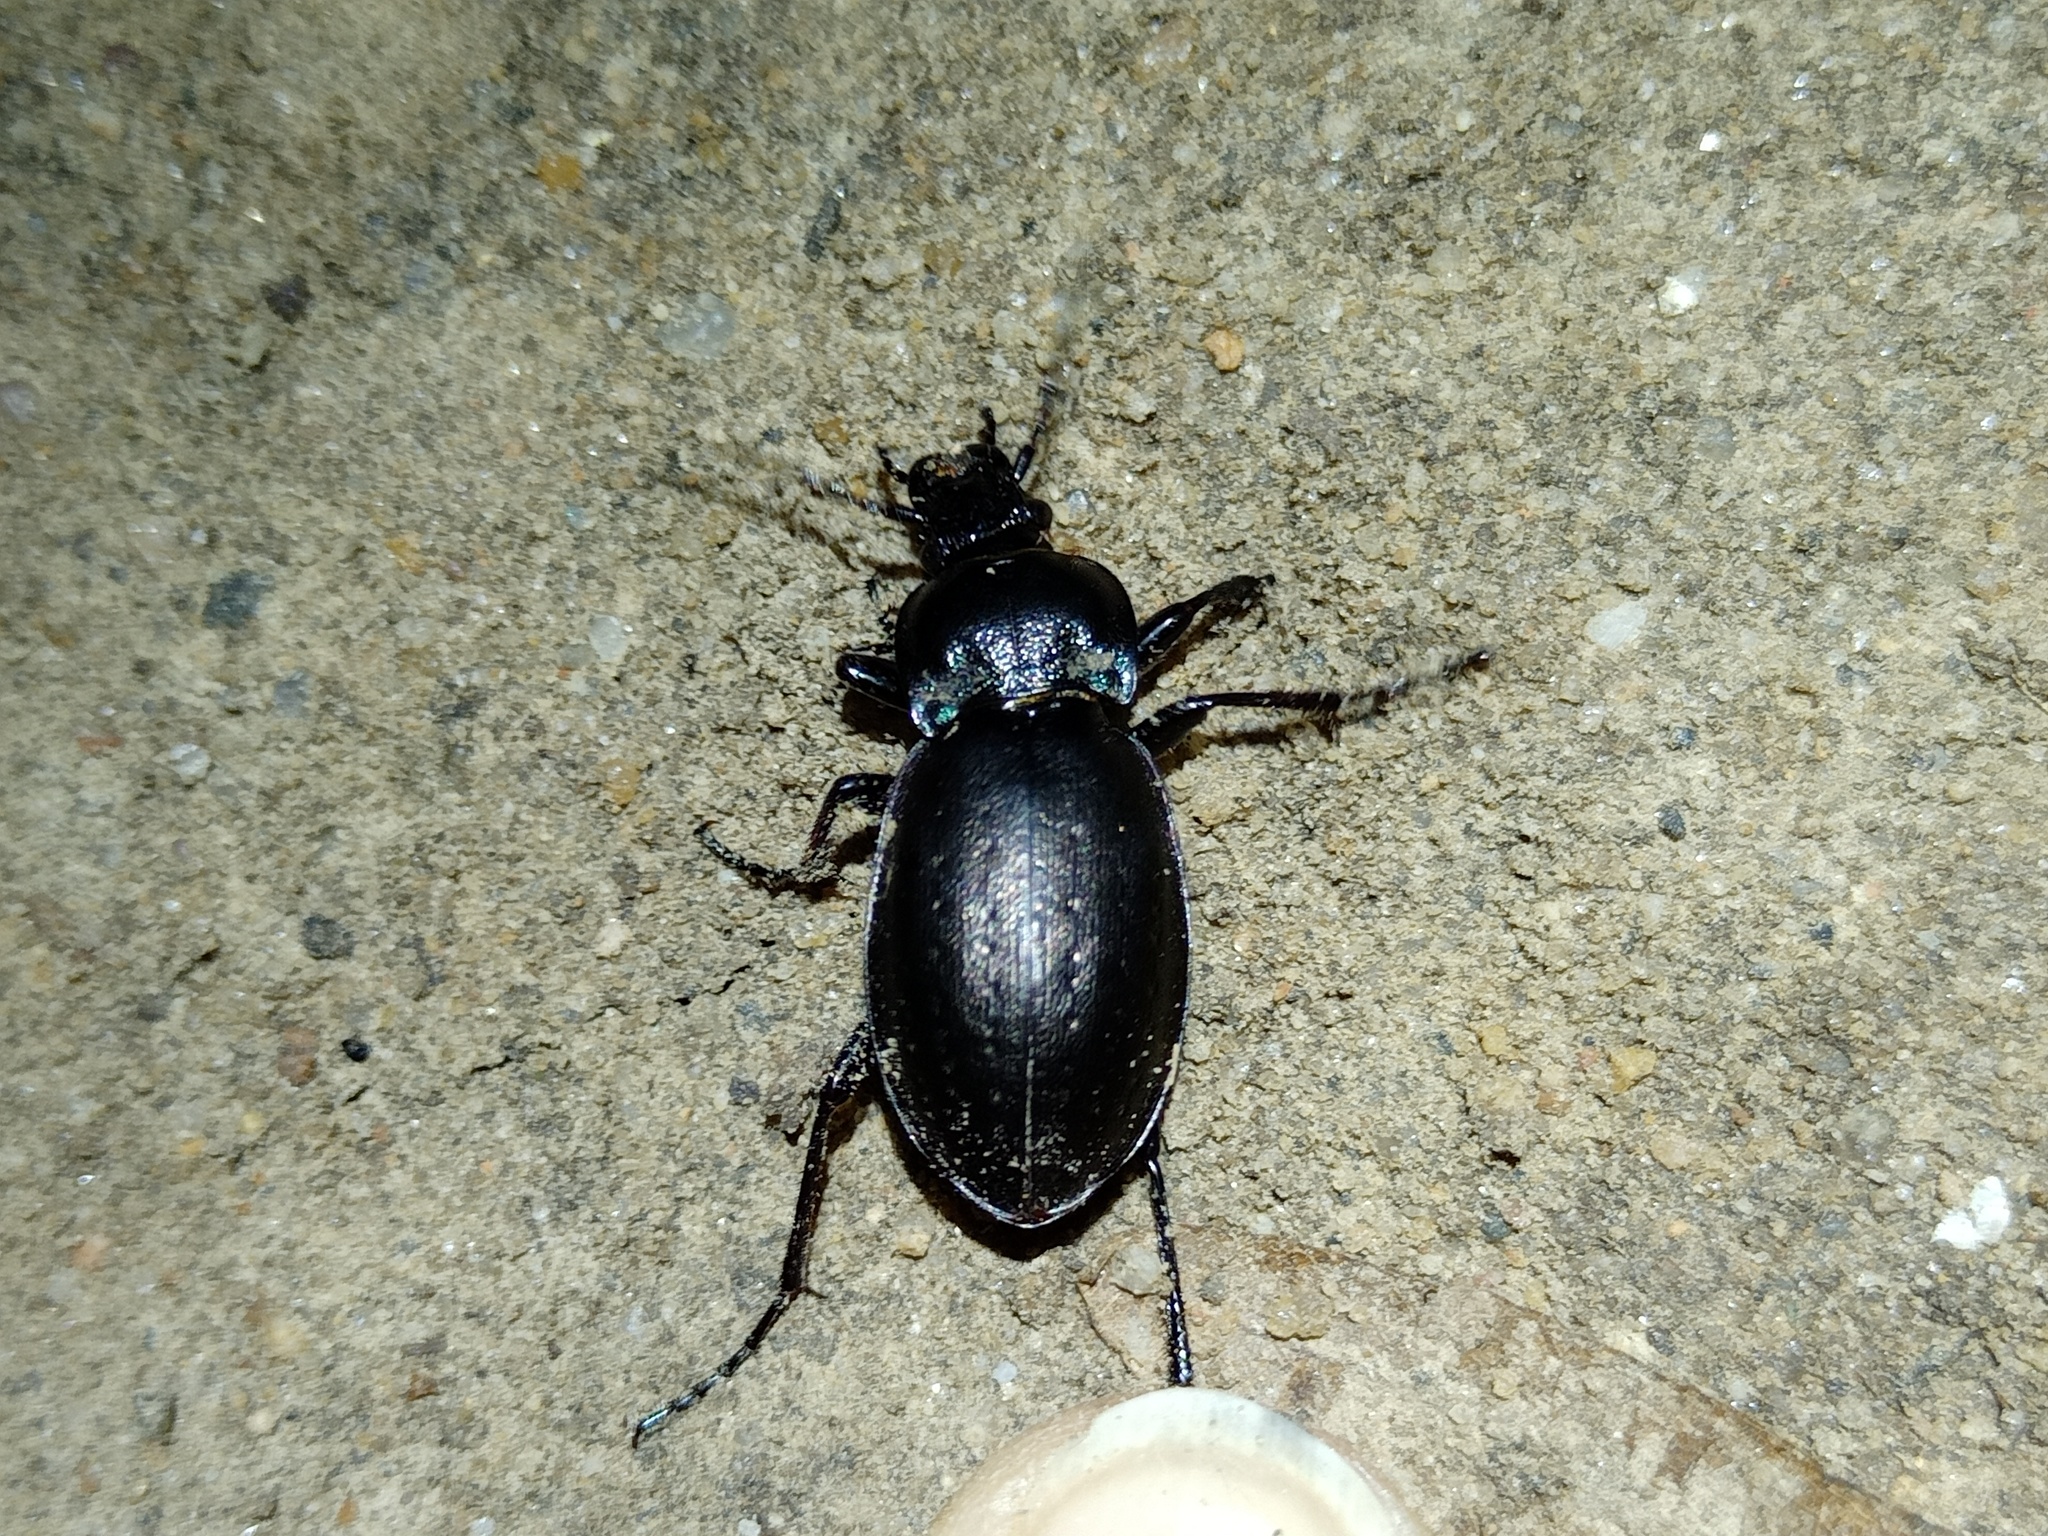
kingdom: Animalia
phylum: Arthropoda
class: Insecta
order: Coleoptera
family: Carabidae
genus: Carabus
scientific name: Carabus nemoralis
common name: European ground beetle
